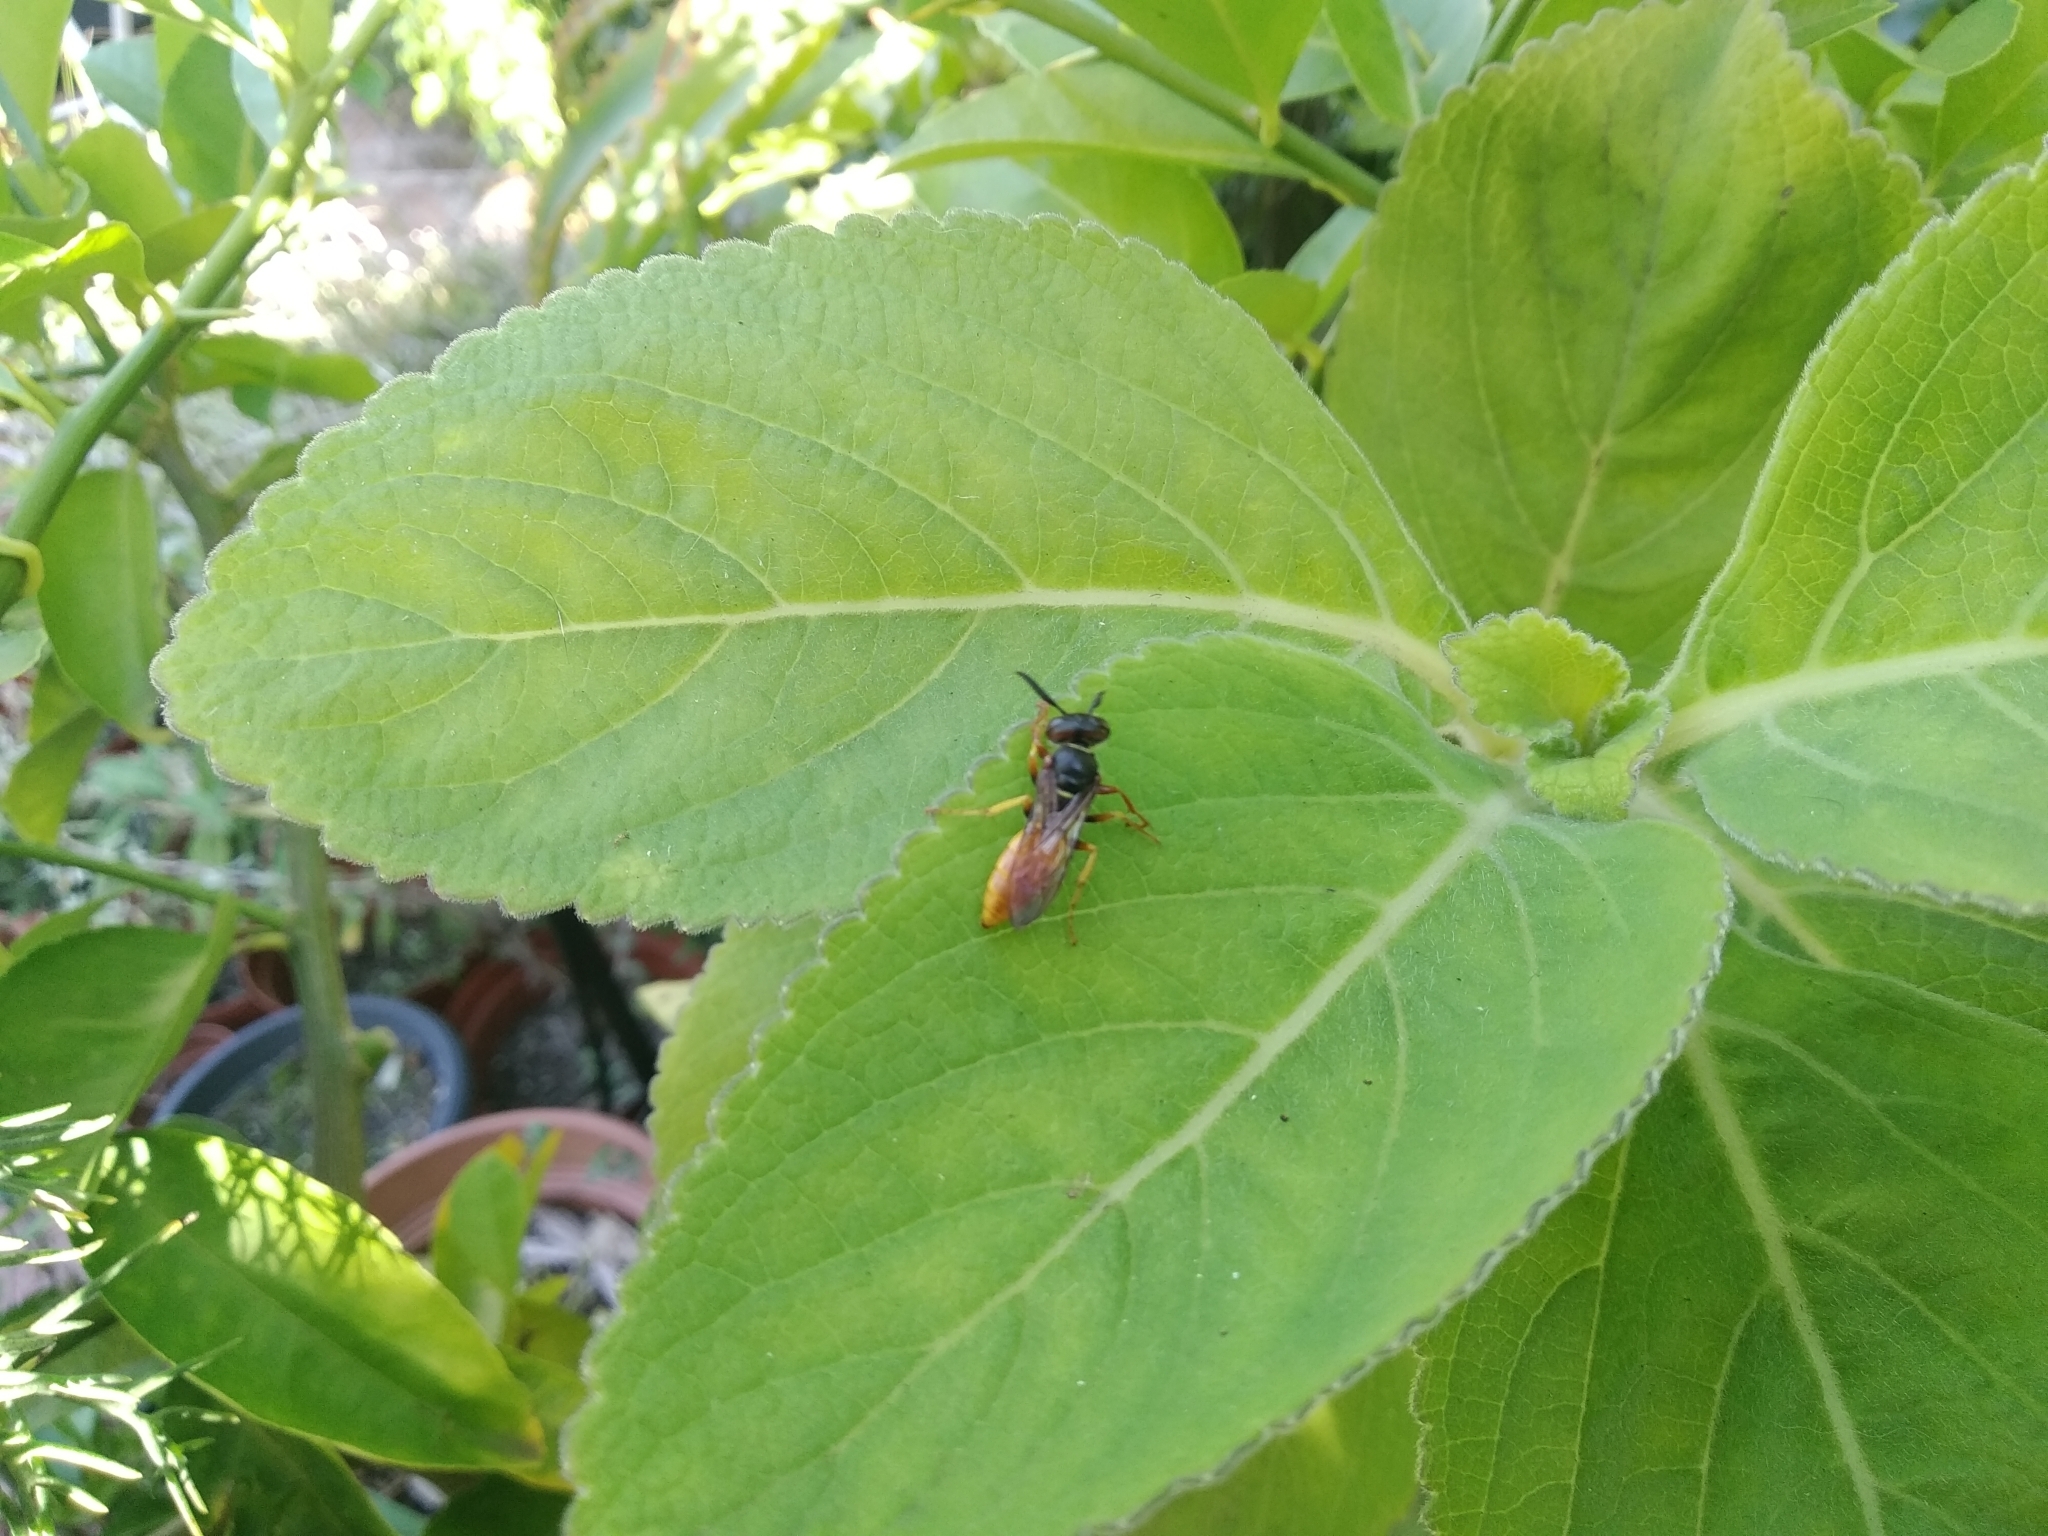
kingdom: Animalia
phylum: Arthropoda
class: Insecta
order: Hymenoptera
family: Crabronidae
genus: Philanthus
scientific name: Philanthus triangulum
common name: Bee wolf
